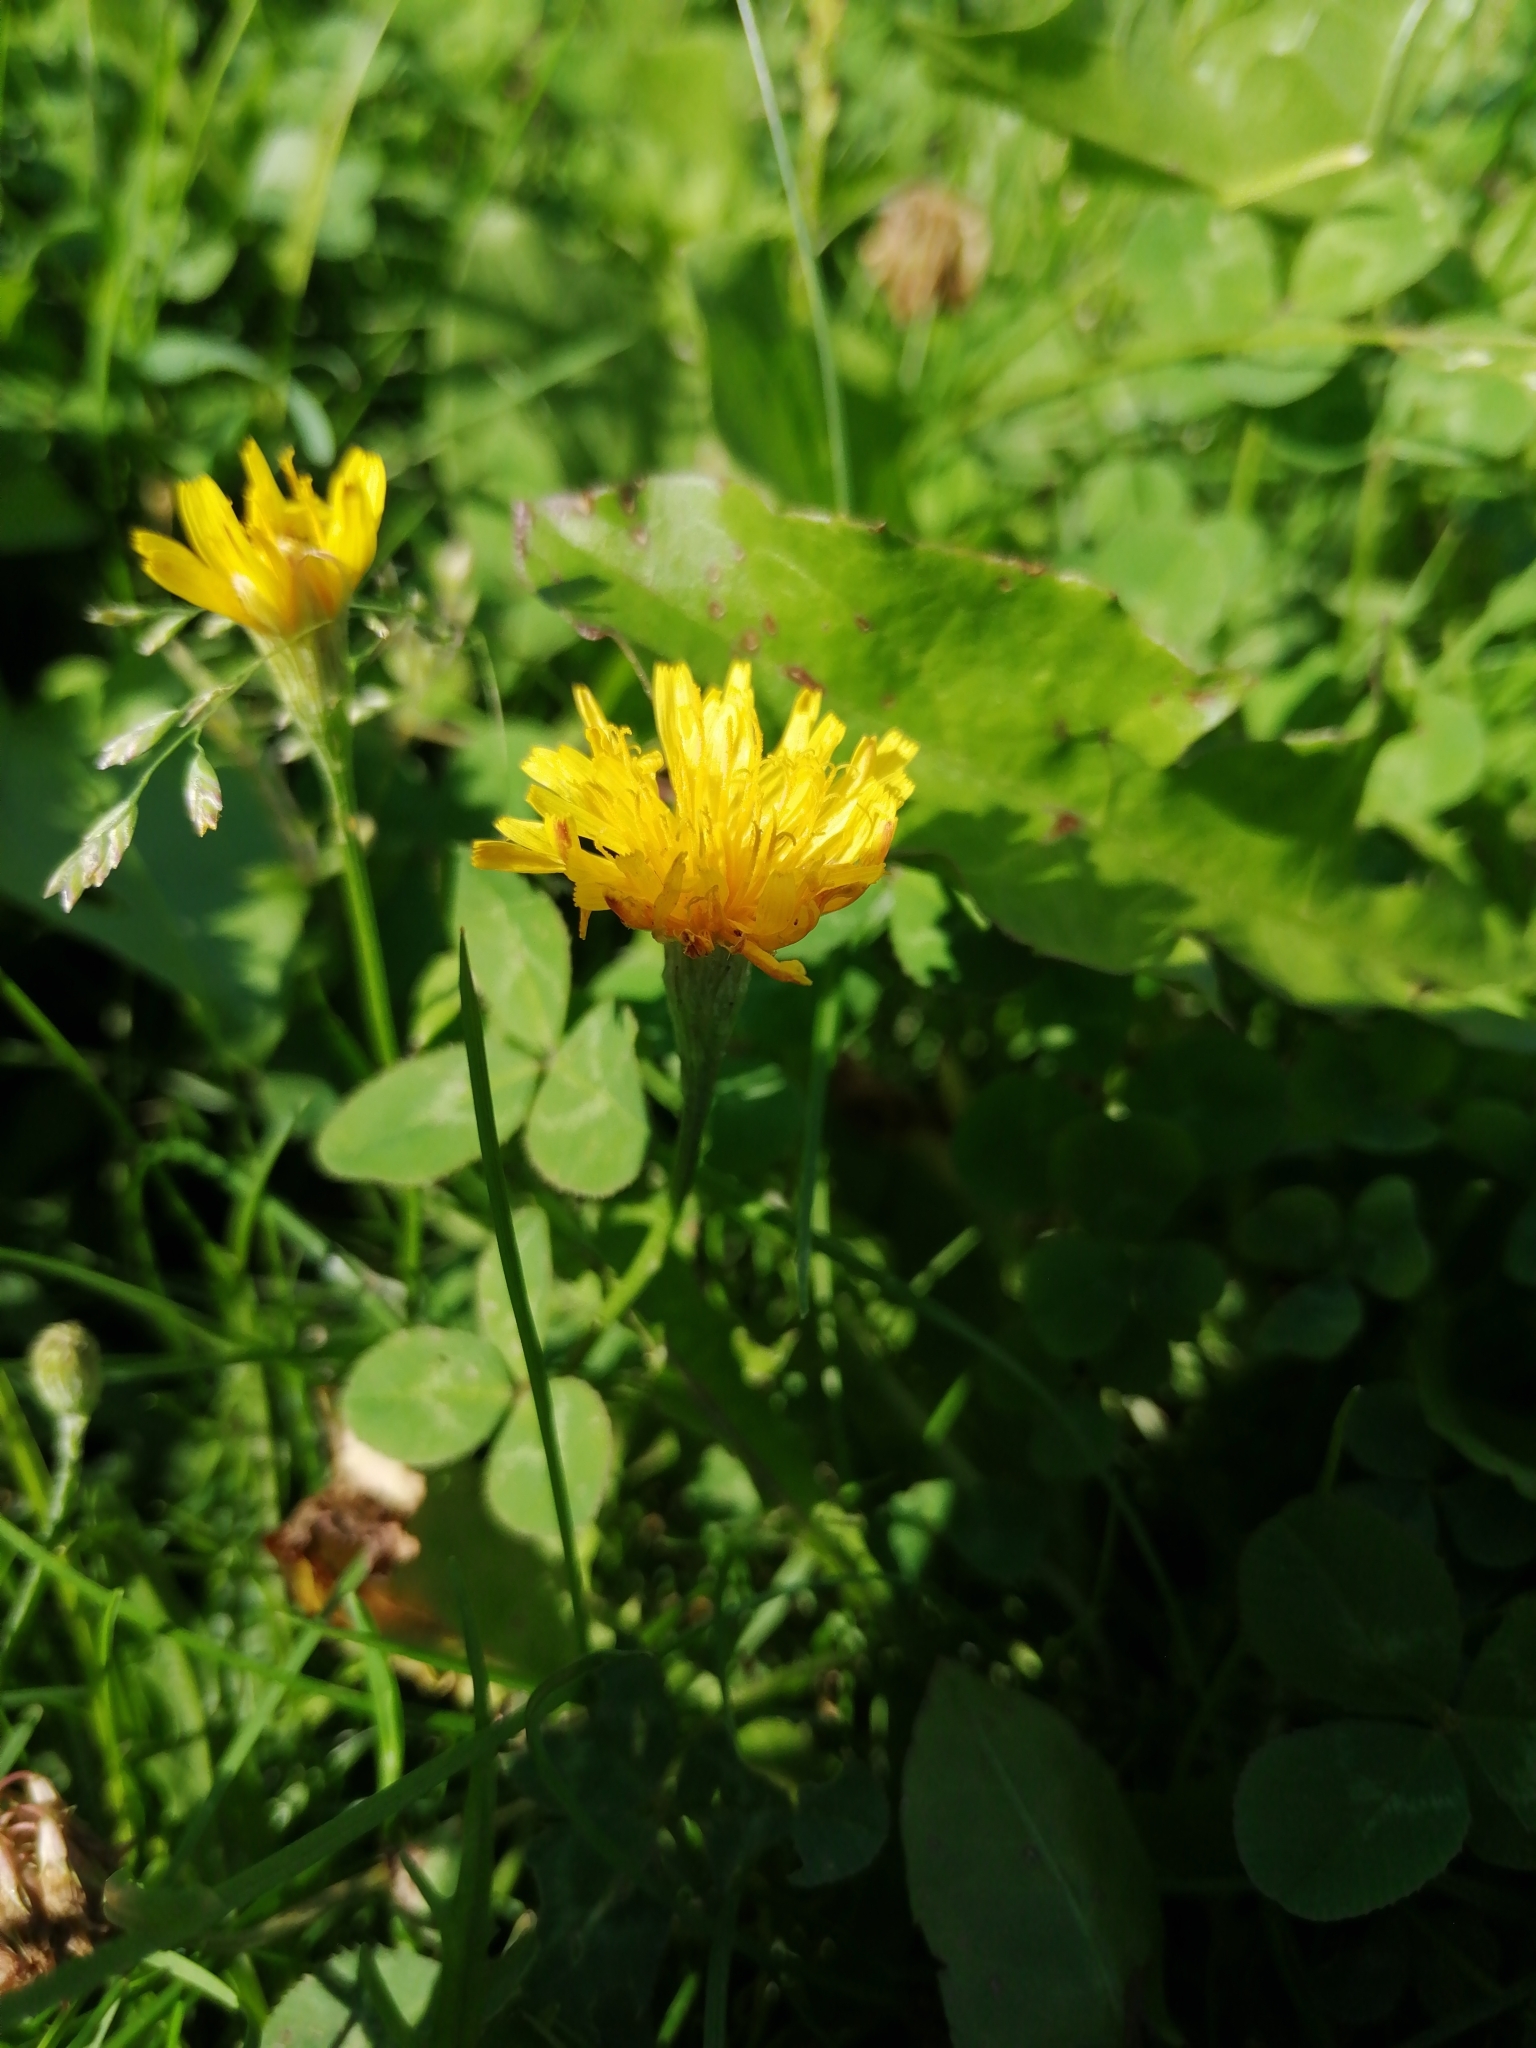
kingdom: Plantae
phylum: Tracheophyta
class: Magnoliopsida
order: Asterales
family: Asteraceae
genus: Scorzoneroides
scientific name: Scorzoneroides autumnalis
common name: Autumn hawkbit
